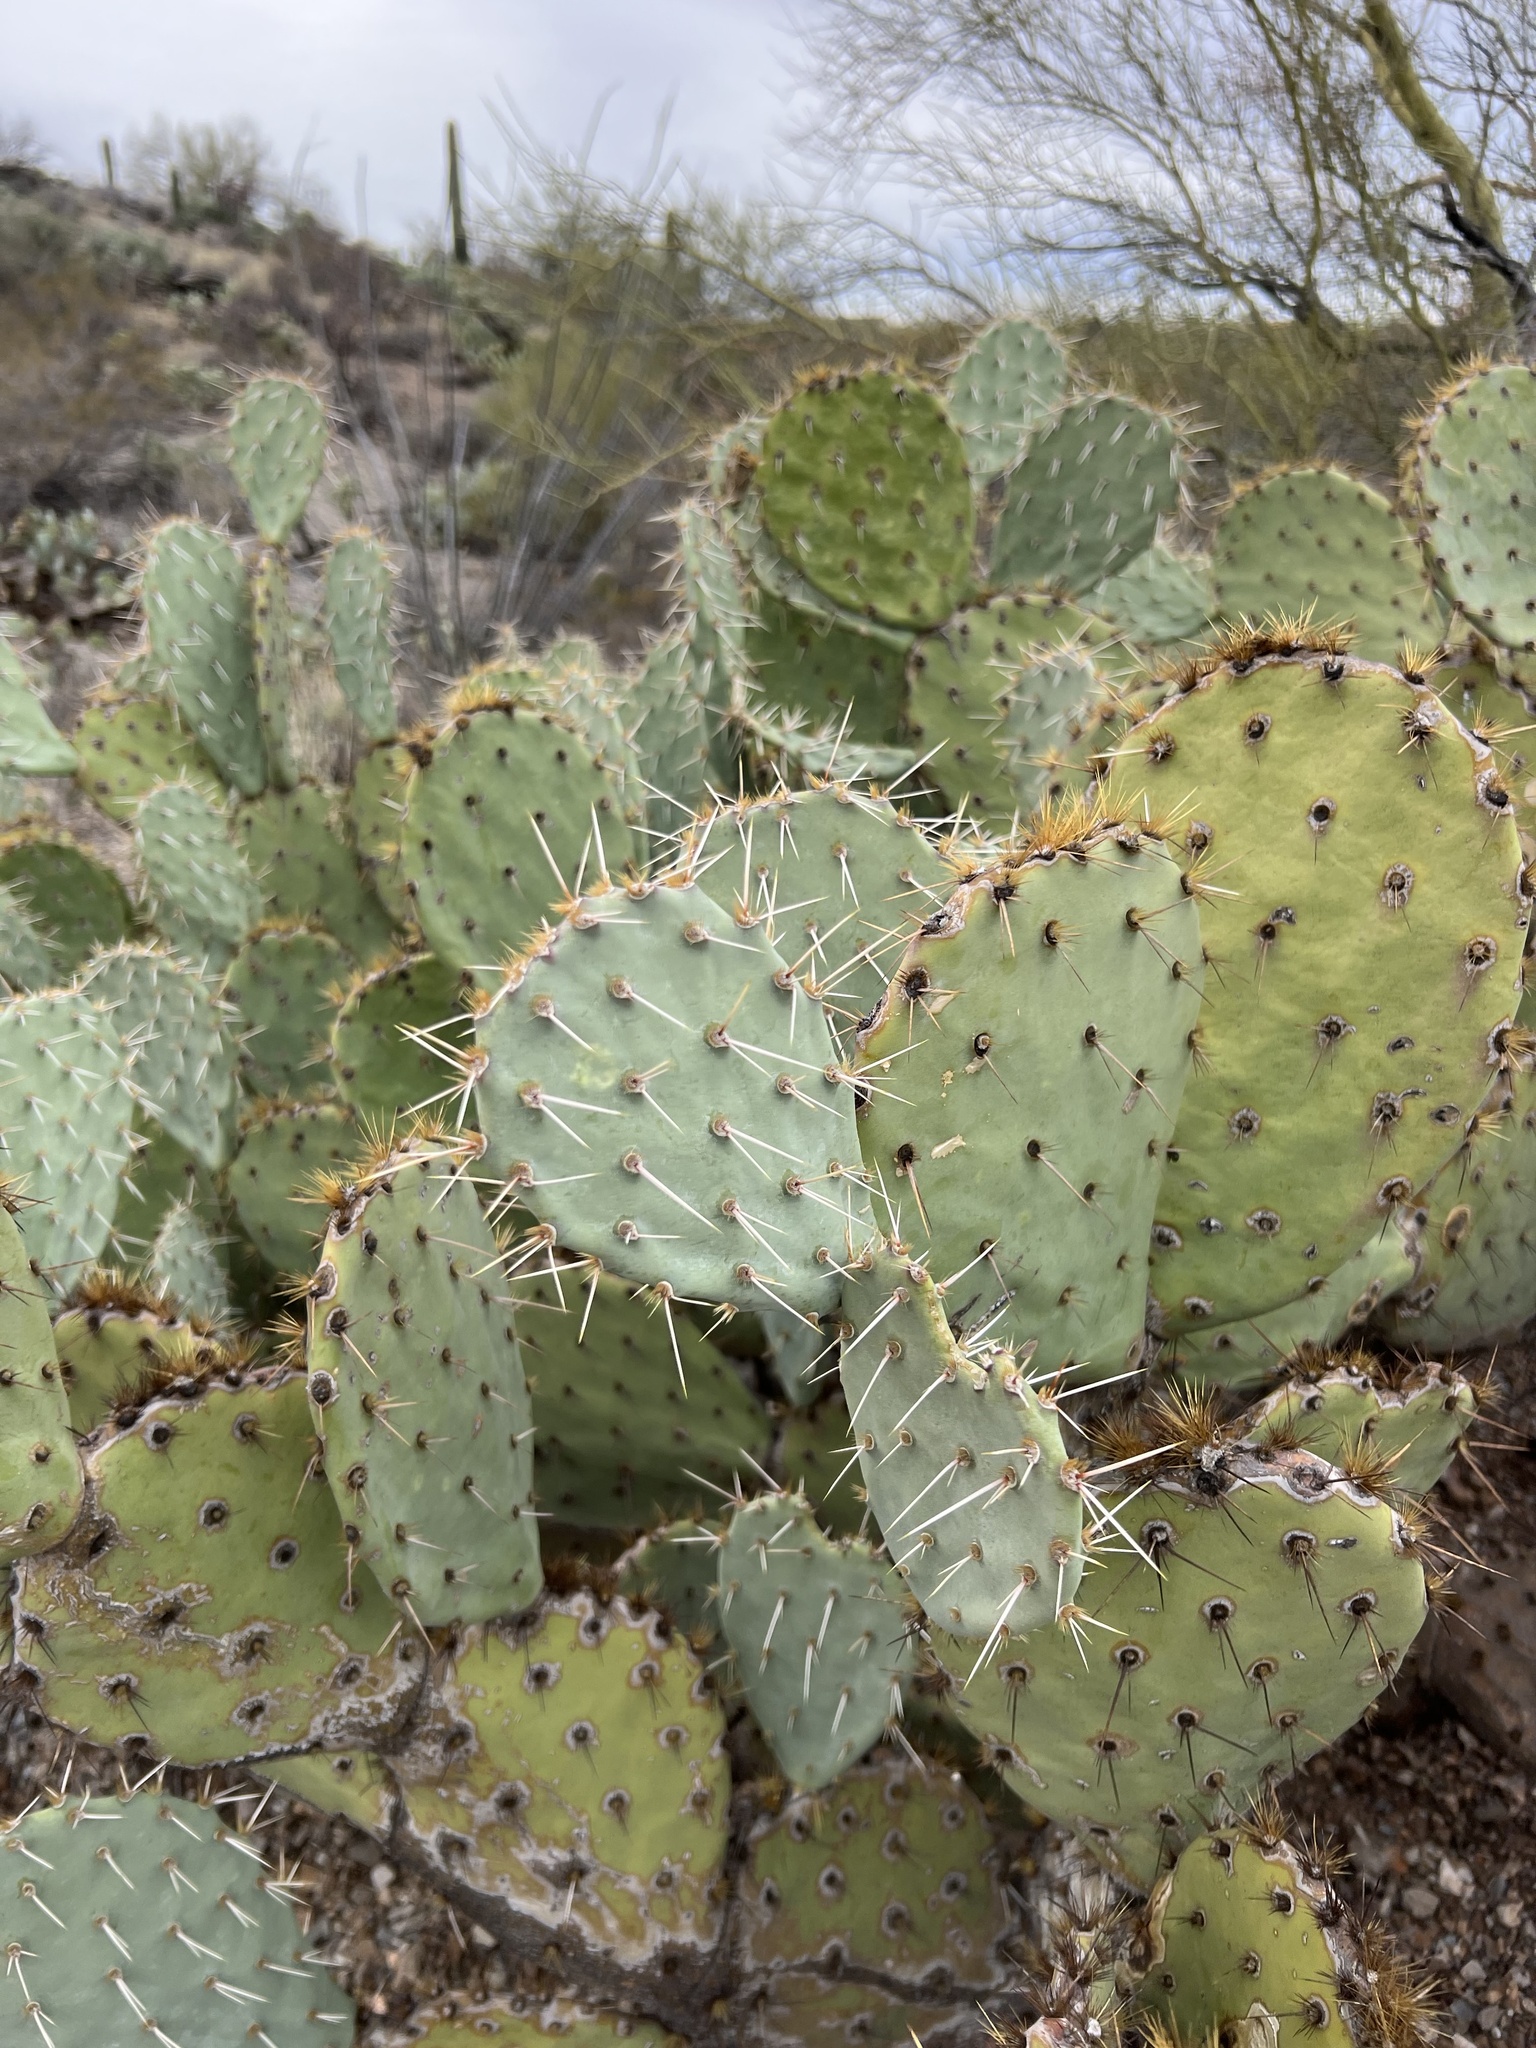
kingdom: Plantae
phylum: Tracheophyta
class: Magnoliopsida
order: Caryophyllales
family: Cactaceae
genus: Opuntia
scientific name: Opuntia engelmannii
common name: Cactus-apple
